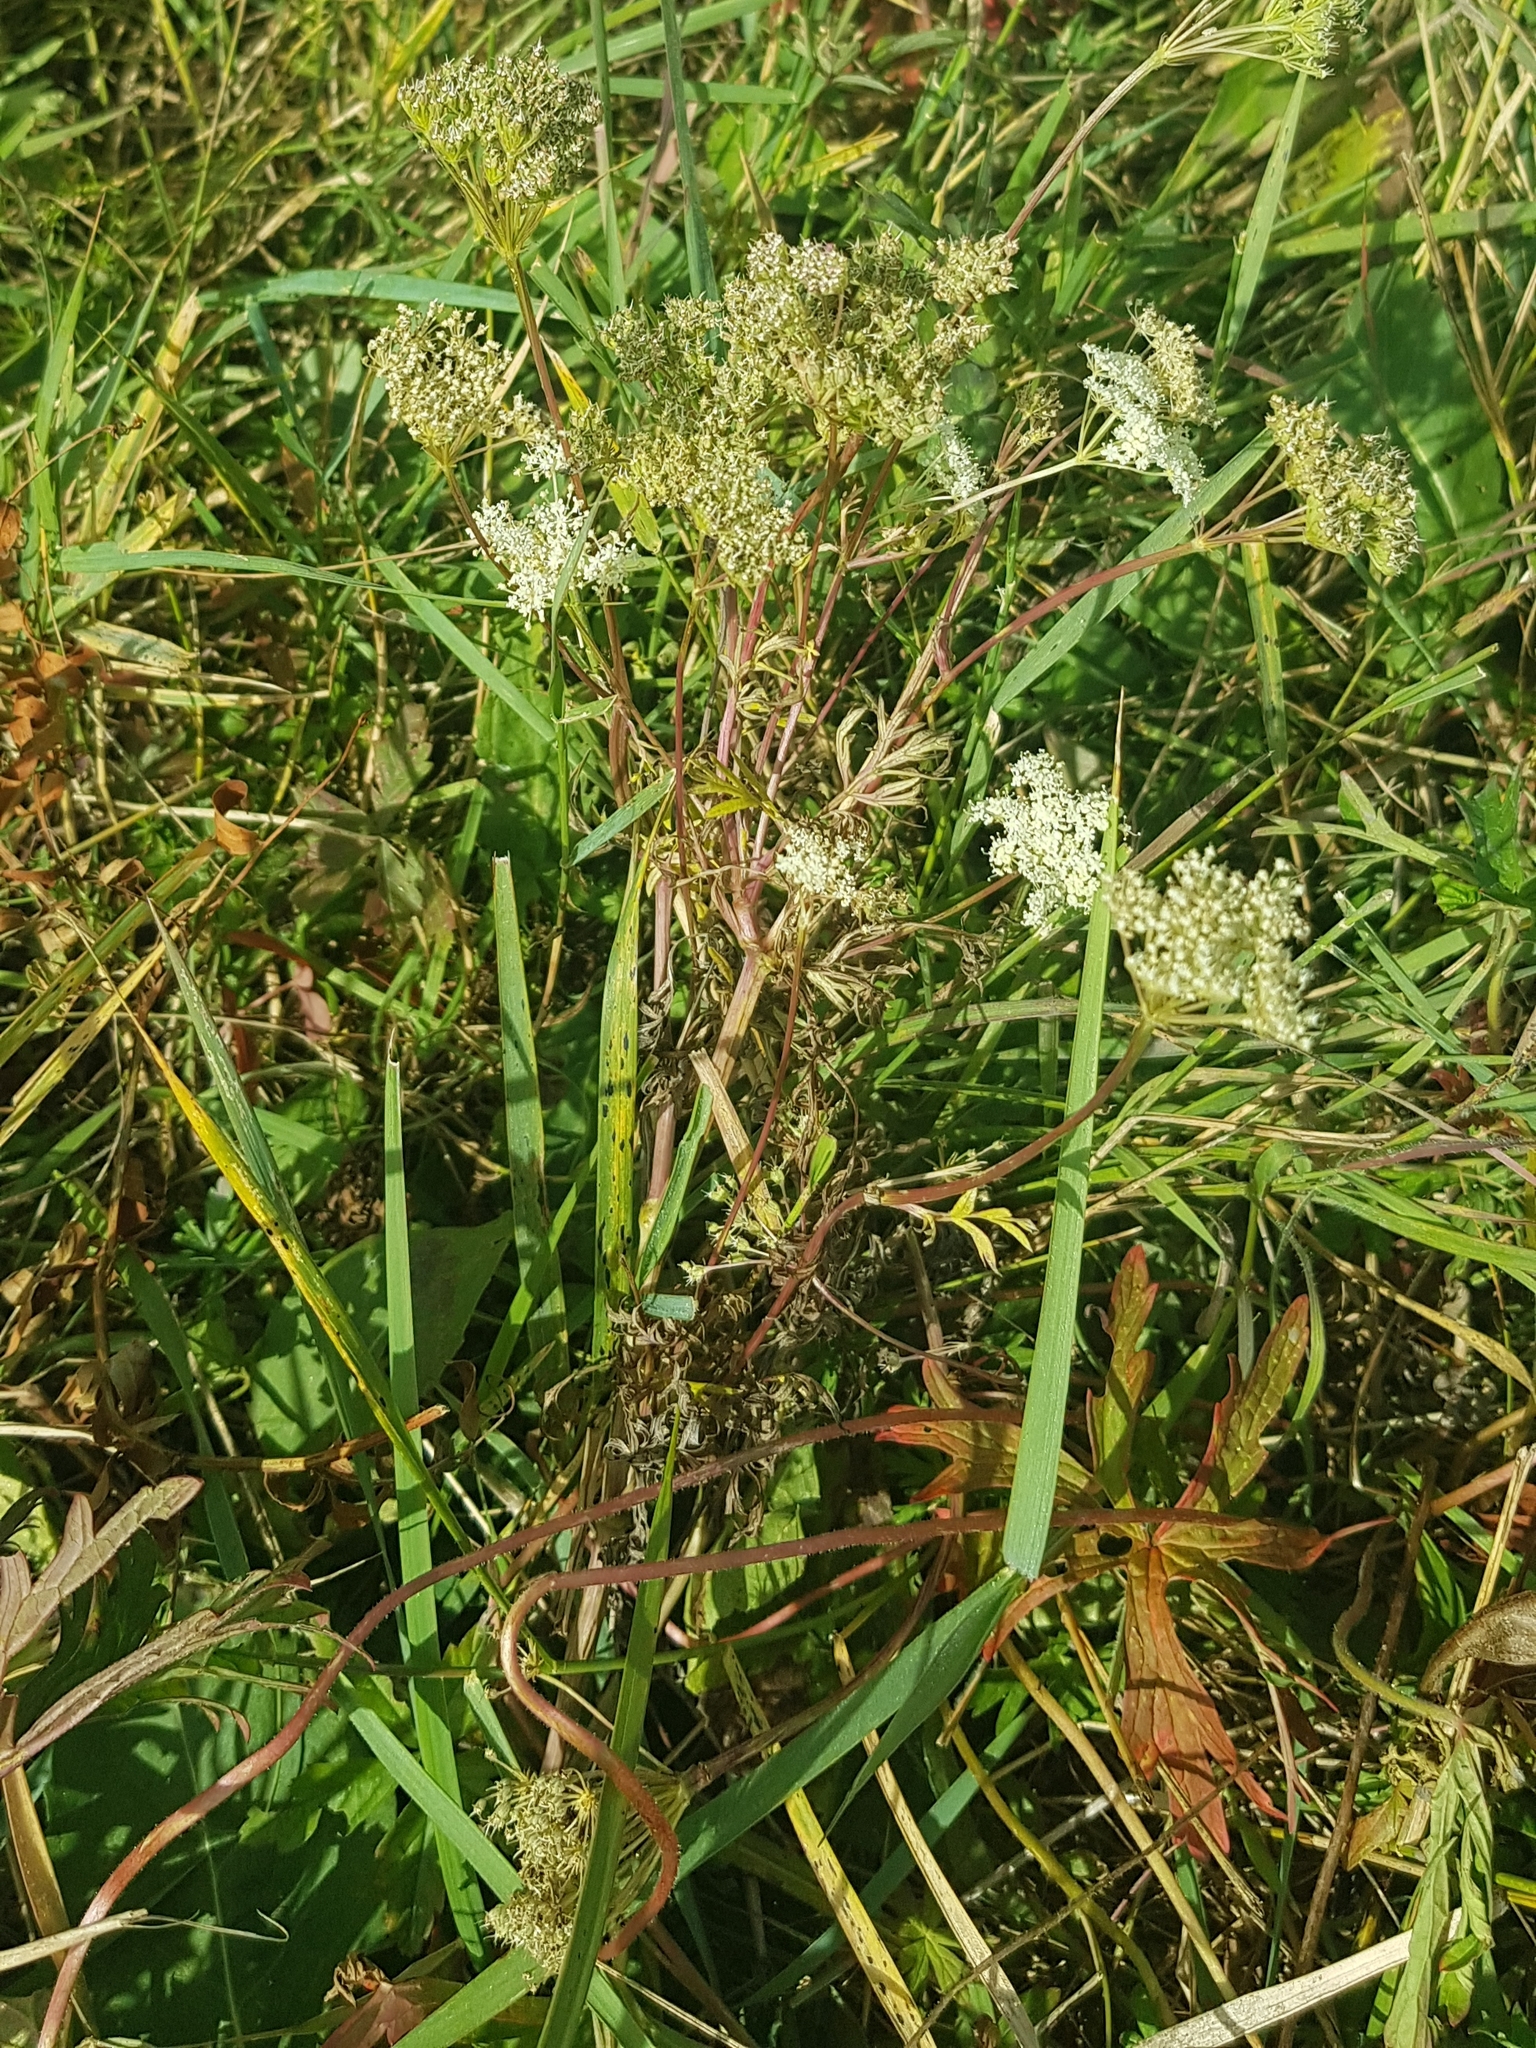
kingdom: Plantae
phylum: Tracheophyta
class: Magnoliopsida
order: Apiales
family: Apiaceae
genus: Saposhnikovia
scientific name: Saposhnikovia divaricata
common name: Siler
